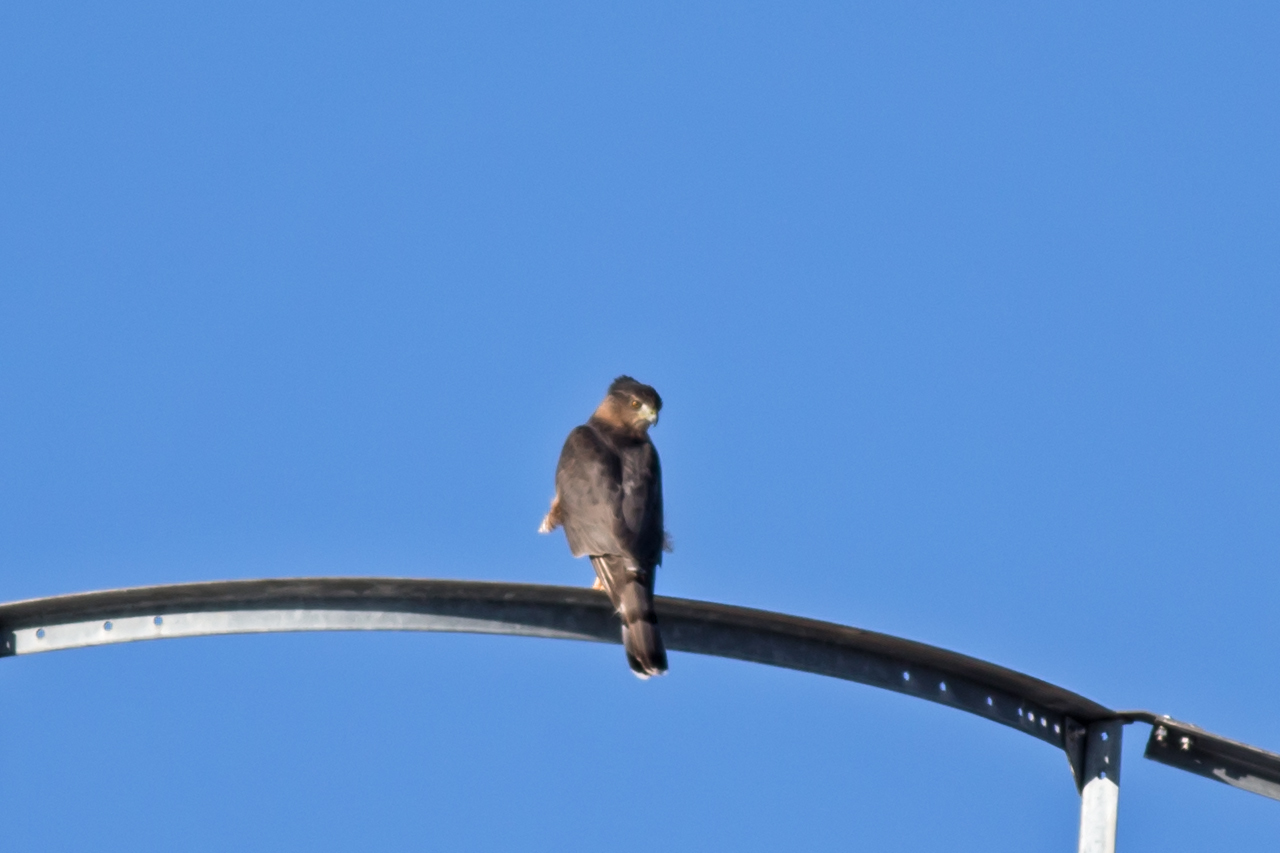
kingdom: Animalia
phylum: Chordata
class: Aves
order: Accipitriformes
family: Accipitridae
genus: Accipiter
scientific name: Accipiter cooperii
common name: Cooper's hawk
